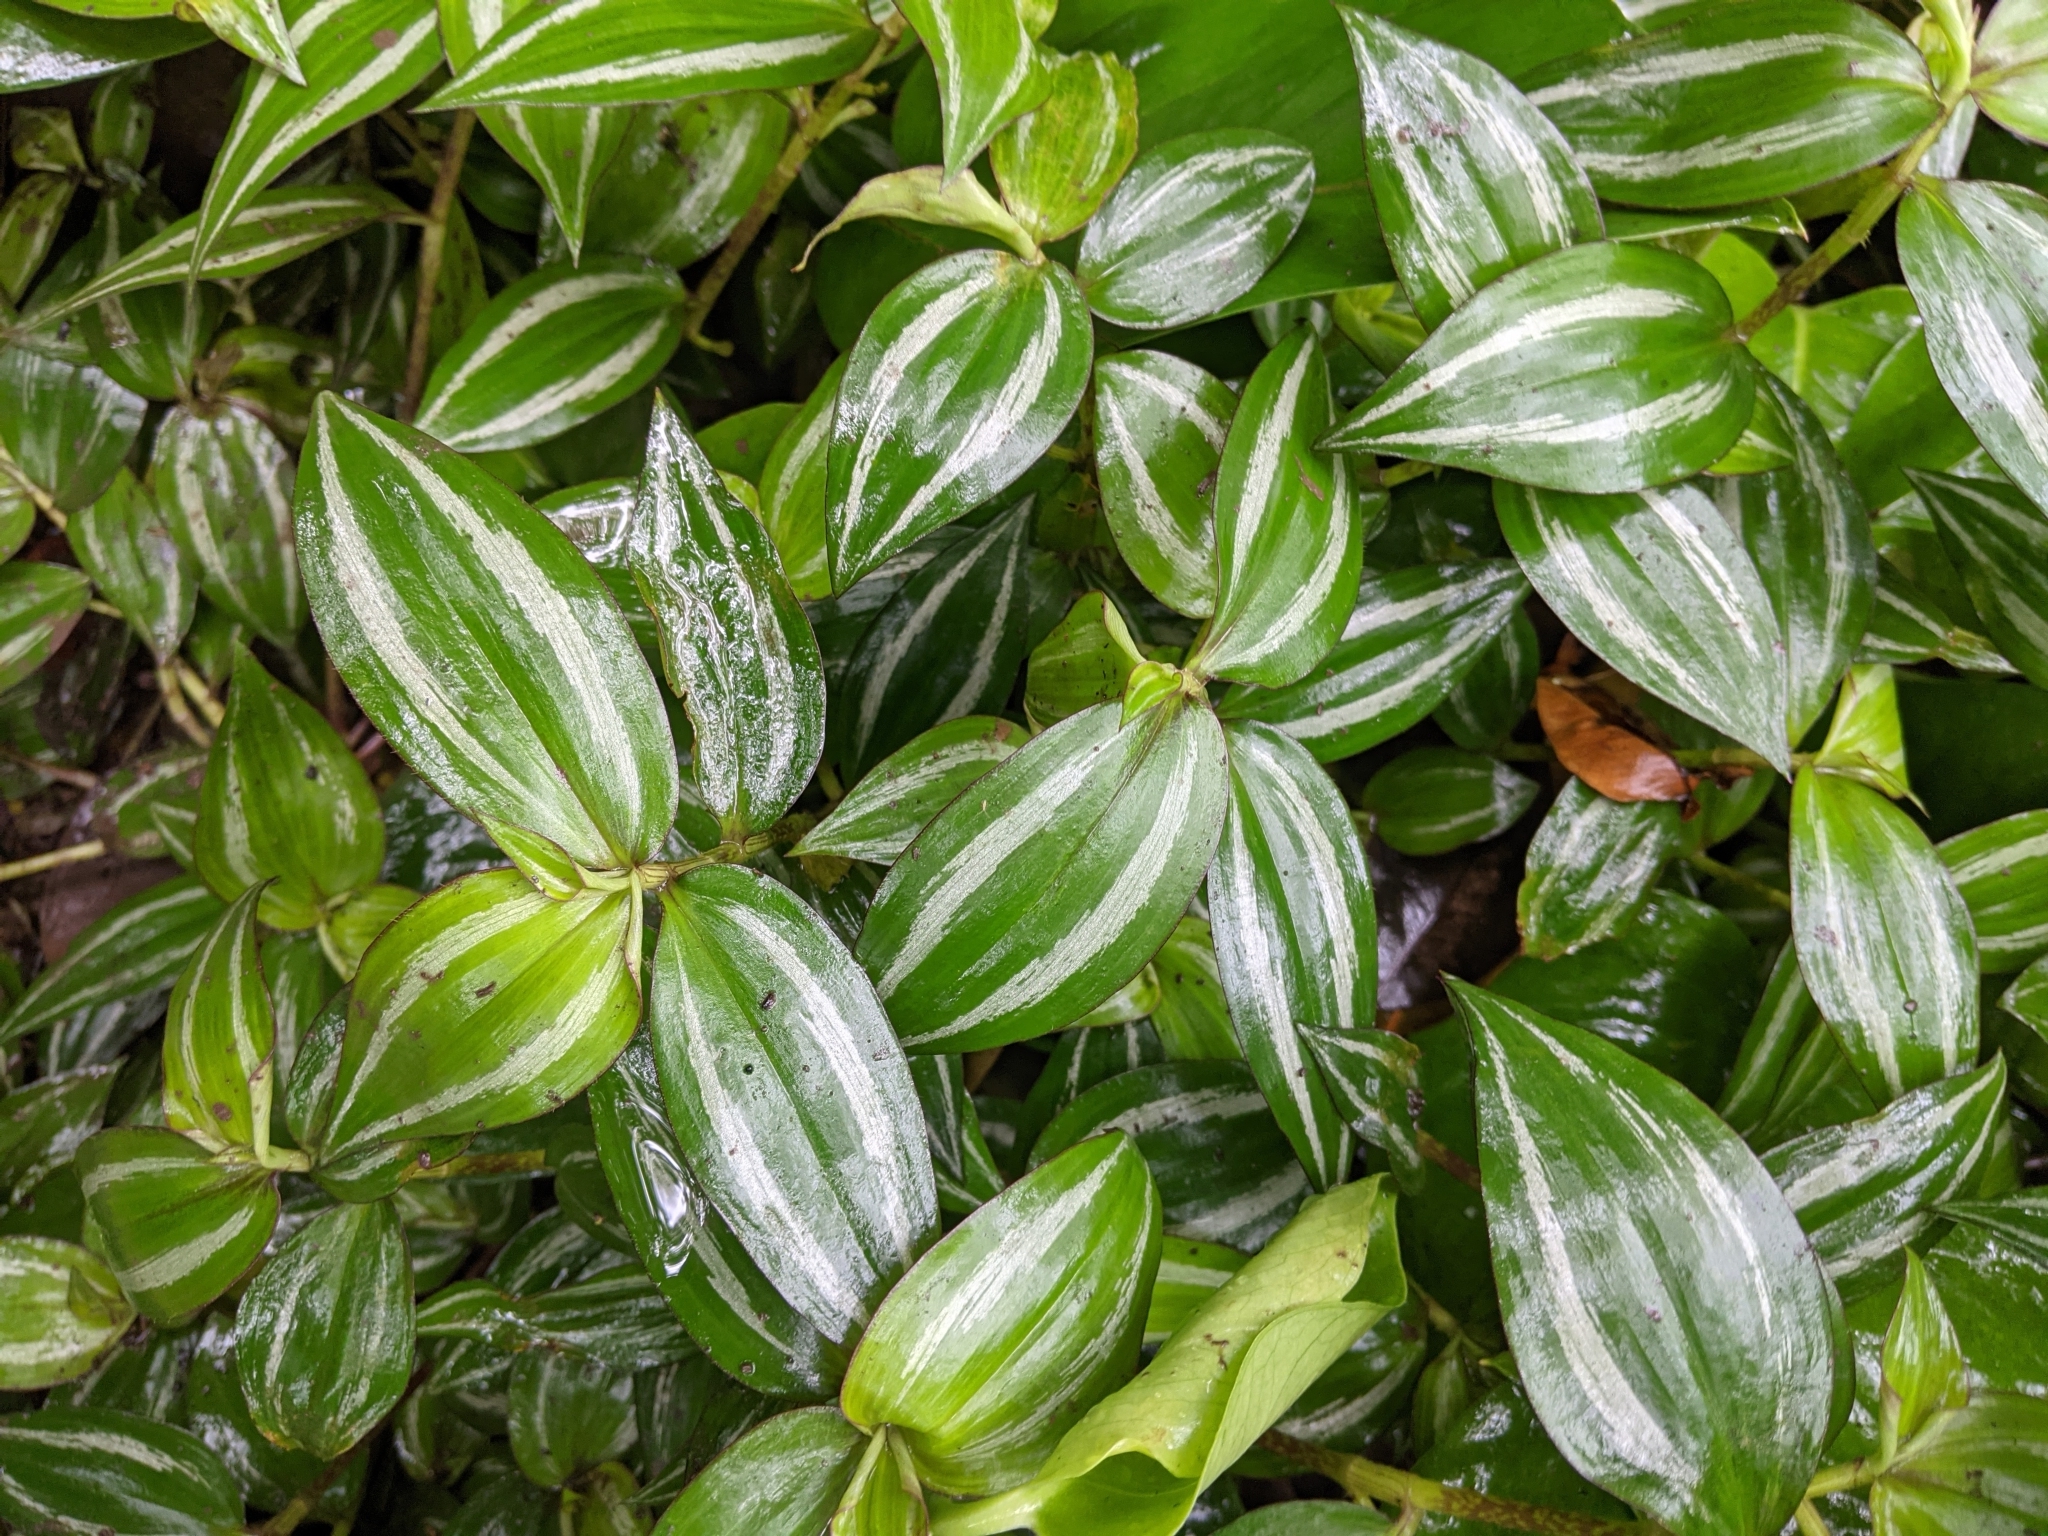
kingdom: Plantae
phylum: Tracheophyta
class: Liliopsida
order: Commelinales
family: Commelinaceae
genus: Tradescantia
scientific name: Tradescantia zebrina
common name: Inchplant
